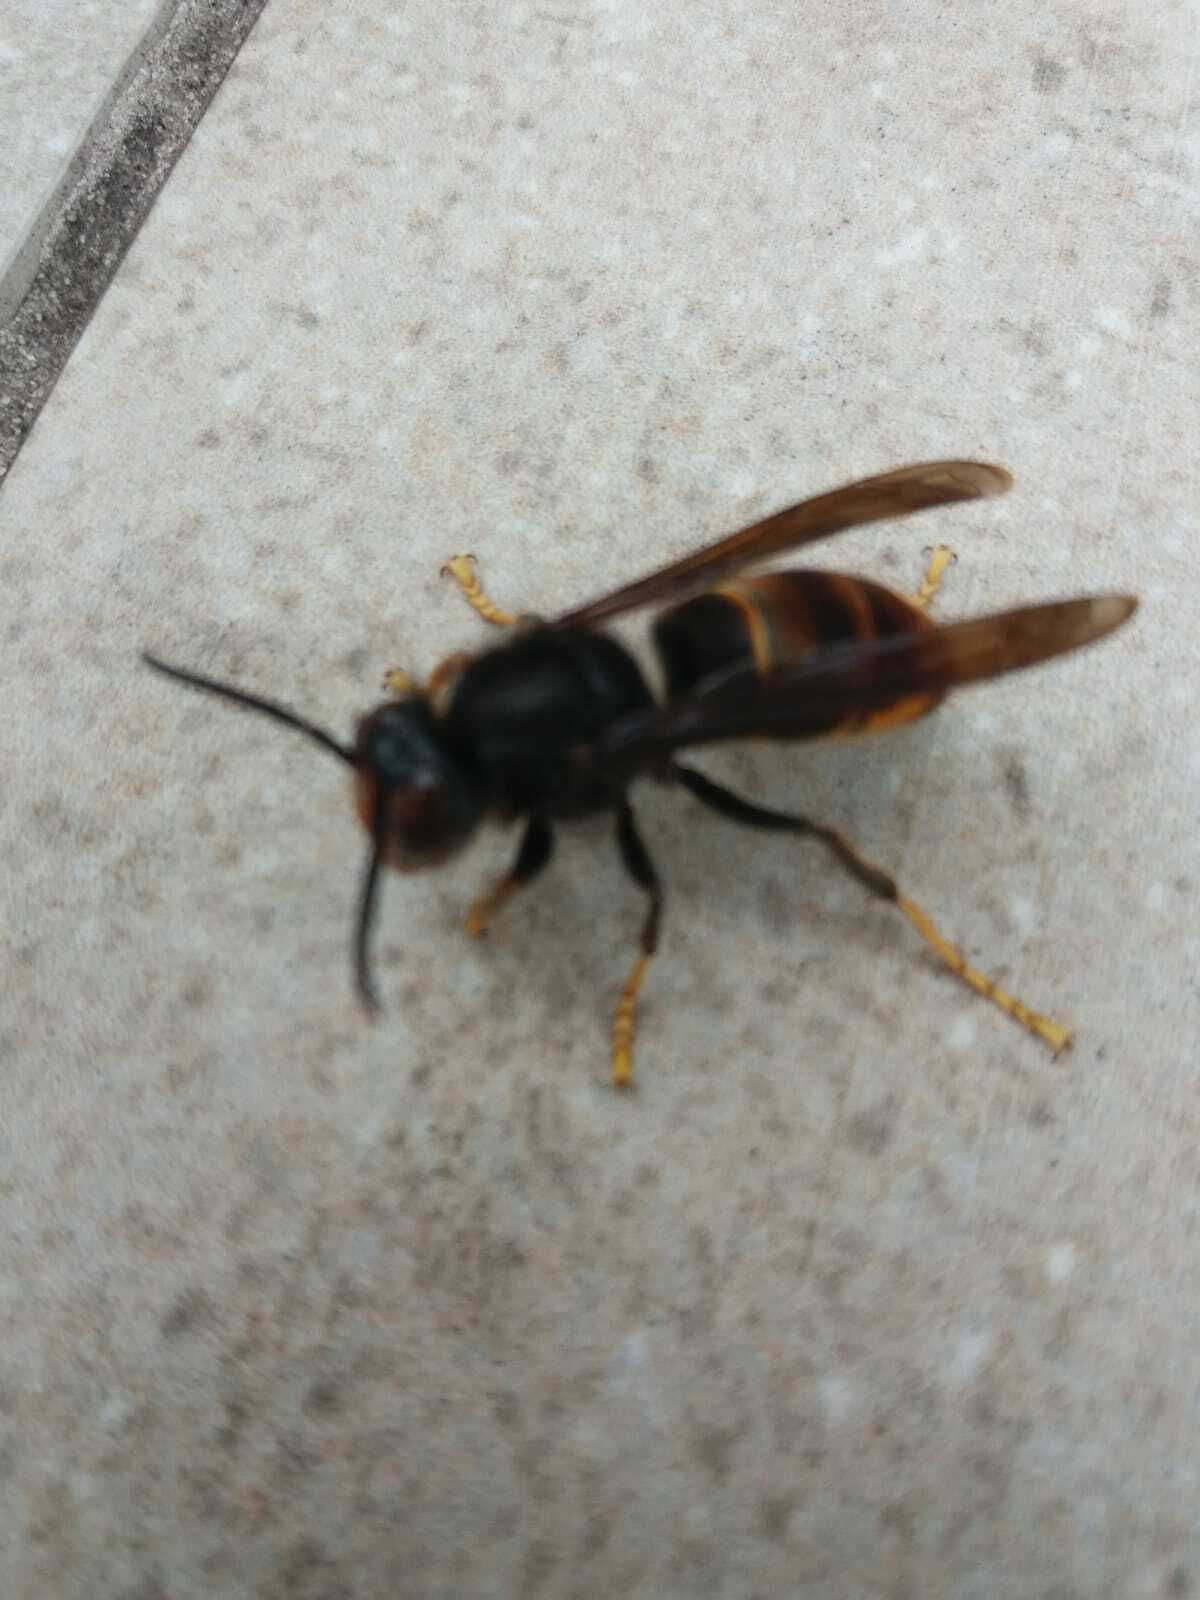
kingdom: Animalia
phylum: Arthropoda
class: Insecta
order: Hymenoptera
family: Vespidae
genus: Vespa
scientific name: Vespa velutina
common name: Asian hornet
